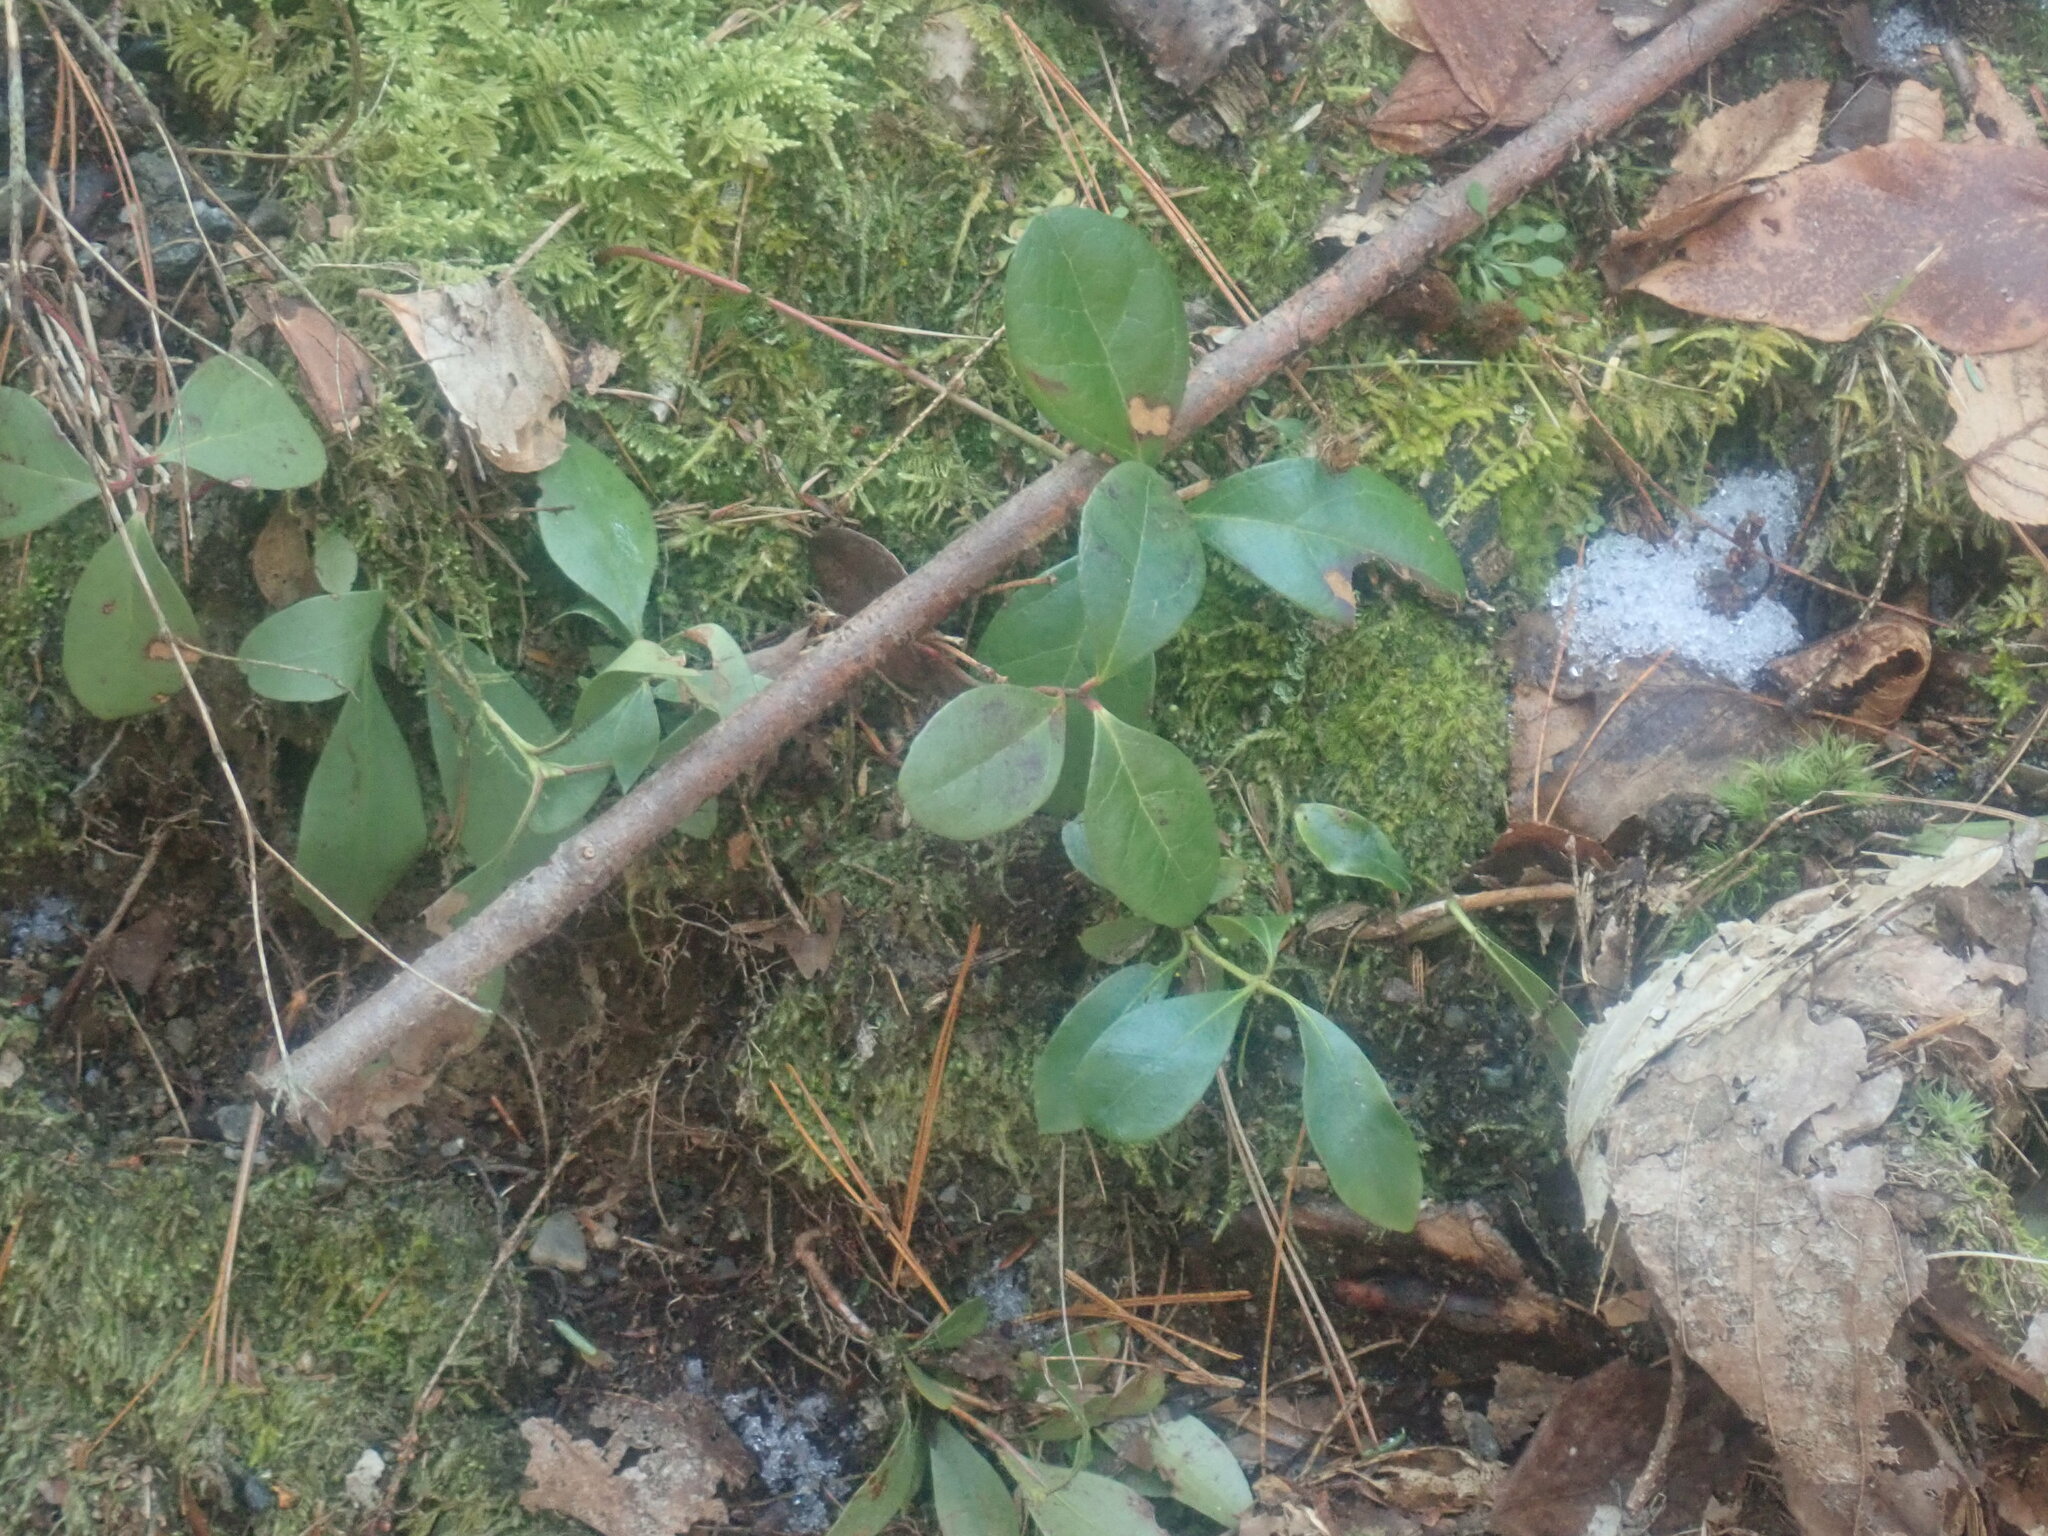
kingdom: Plantae
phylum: Tracheophyta
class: Magnoliopsida
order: Ericales
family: Ericaceae
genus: Gaultheria
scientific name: Gaultheria procumbens
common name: Checkerberry
